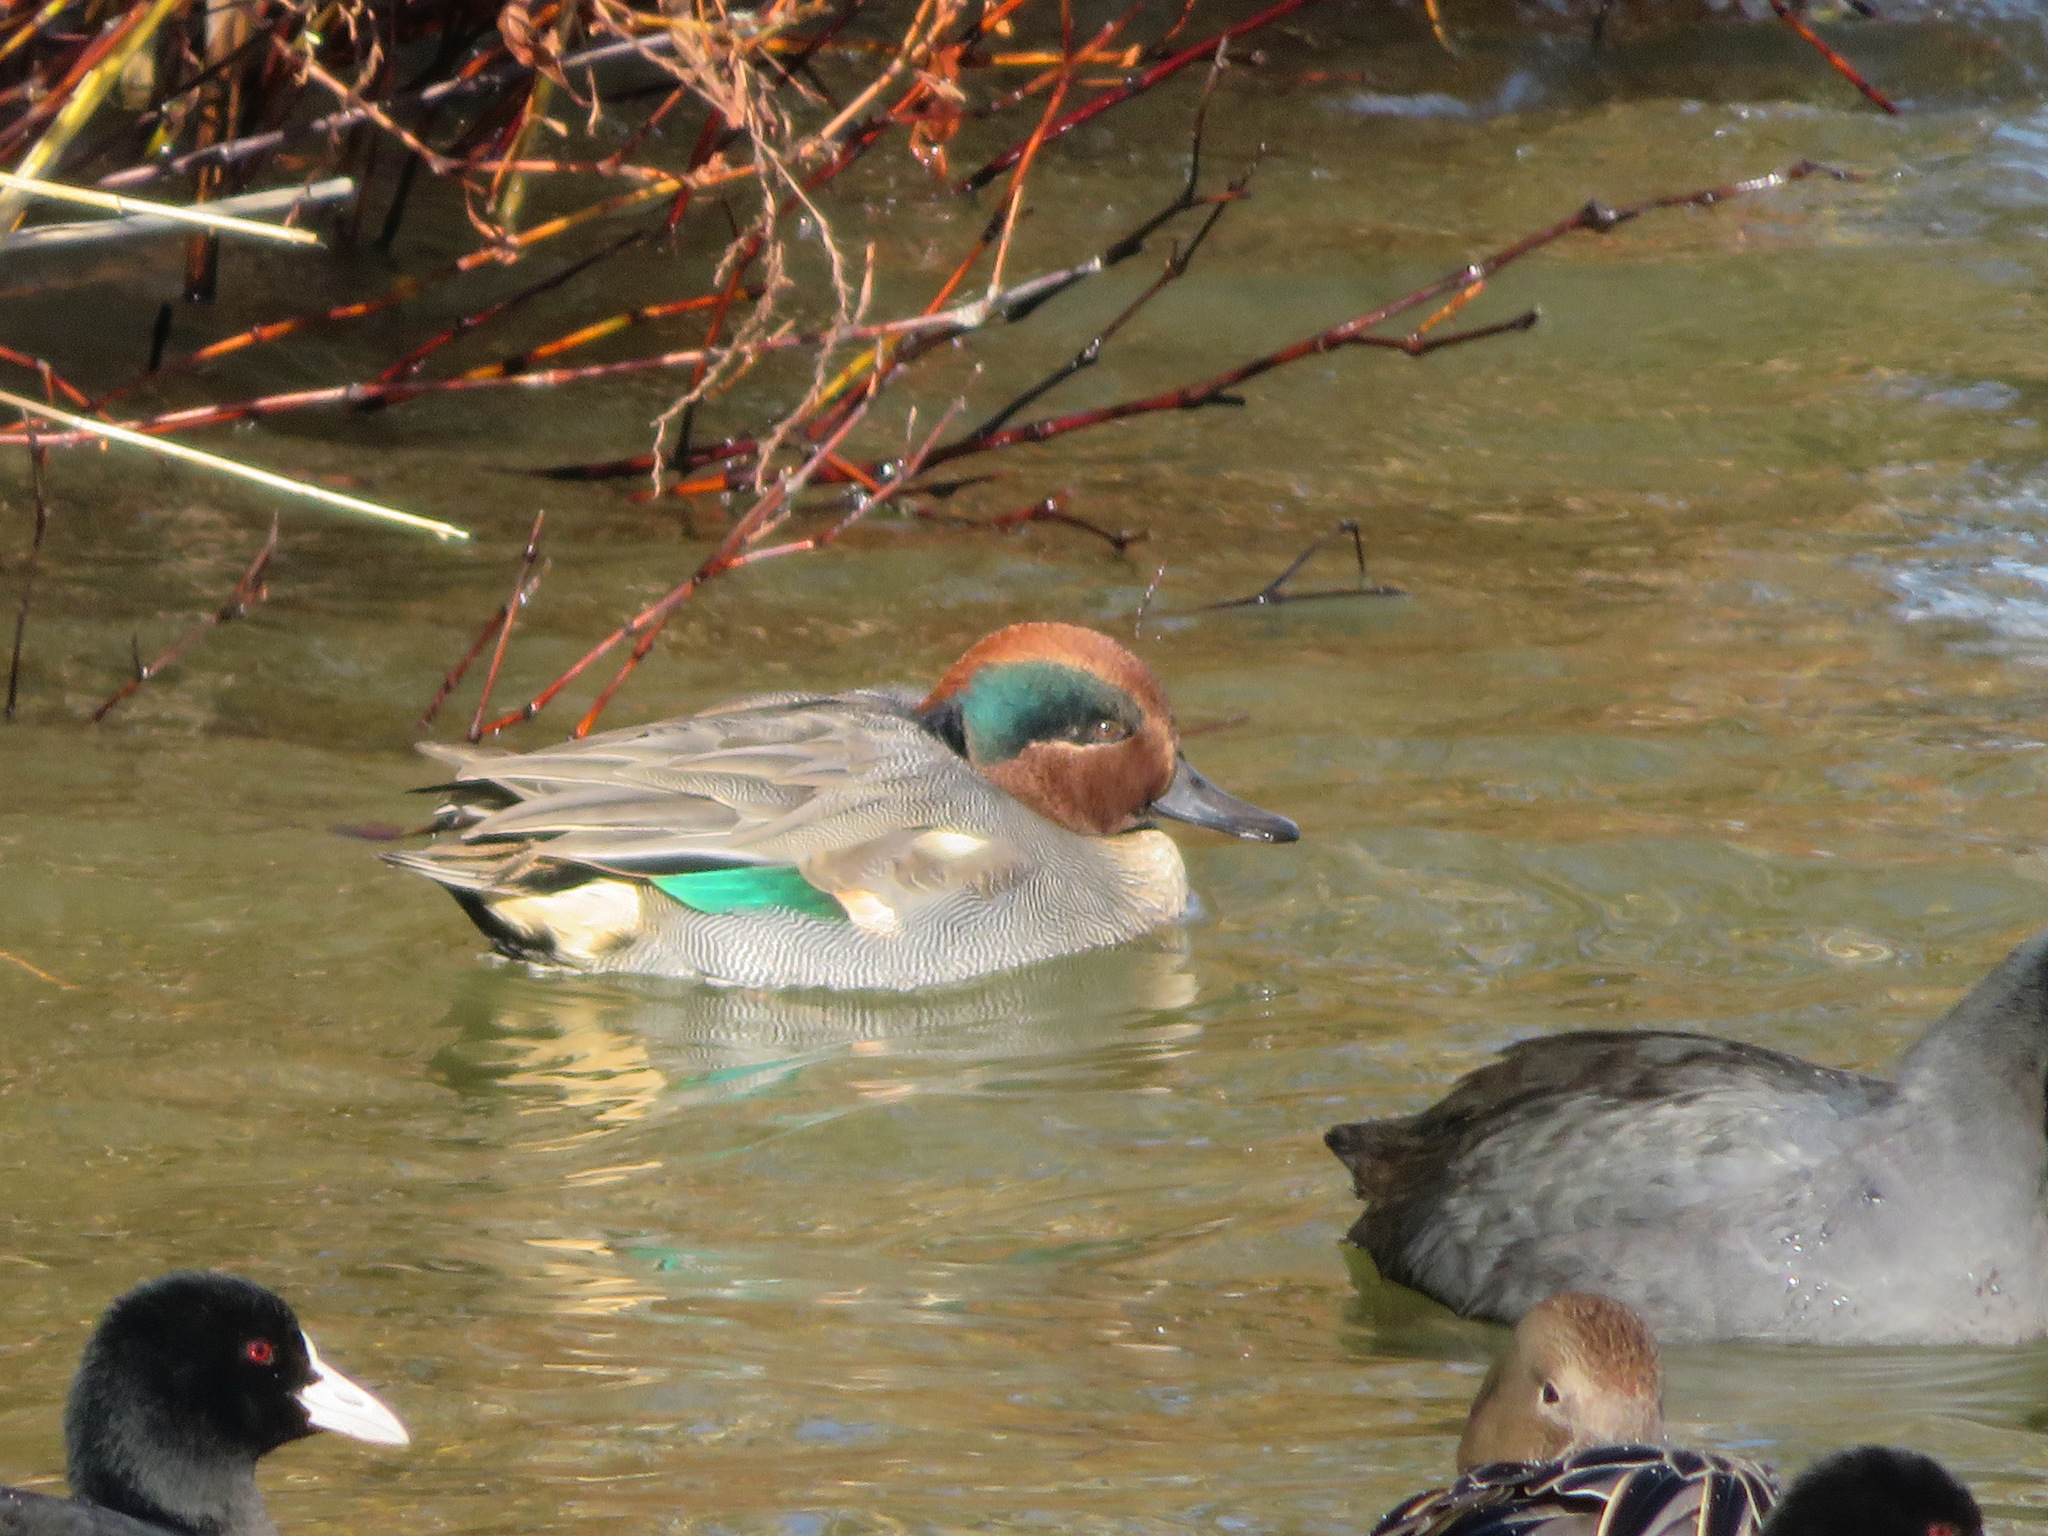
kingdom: Animalia
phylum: Chordata
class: Aves
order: Anseriformes
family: Anatidae
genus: Anas
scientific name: Anas crecca
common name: Eurasian teal
